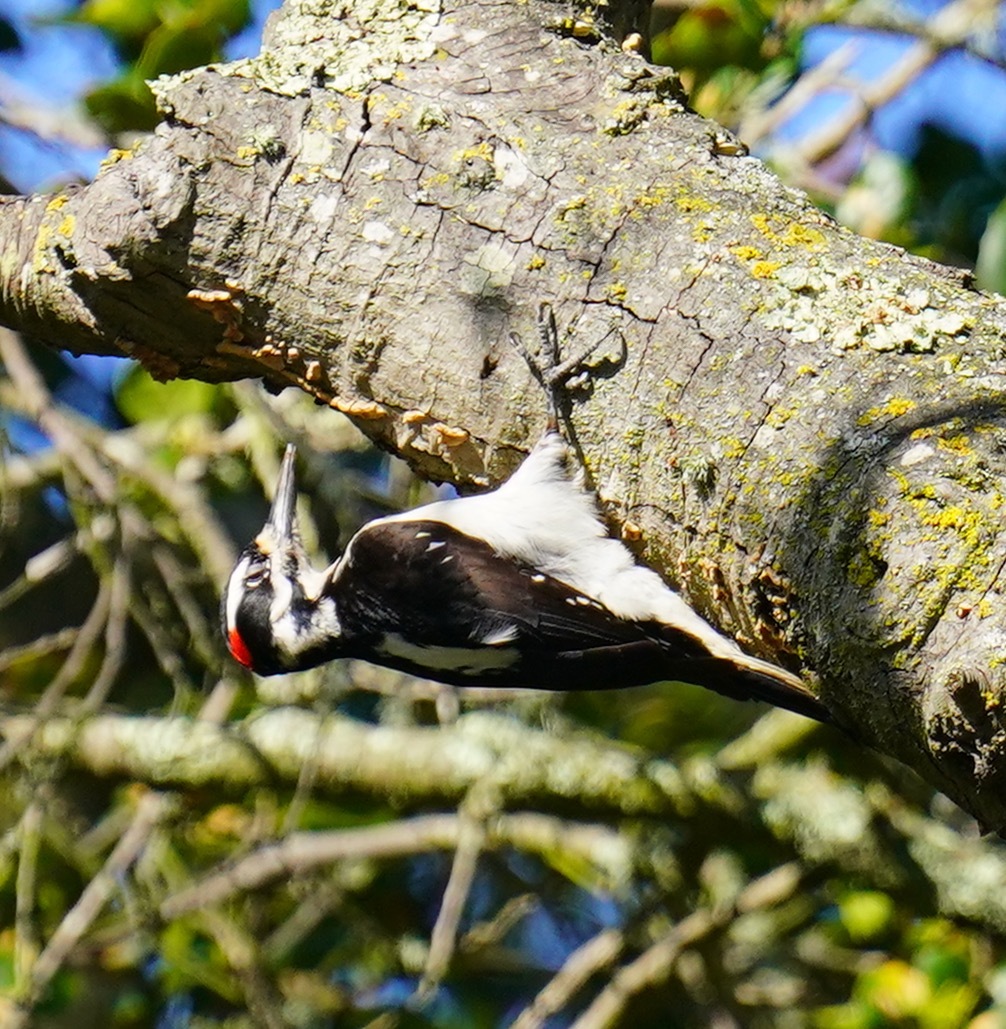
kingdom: Animalia
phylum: Chordata
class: Aves
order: Piciformes
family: Picidae
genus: Leuconotopicus
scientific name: Leuconotopicus villosus
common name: Hairy woodpecker
